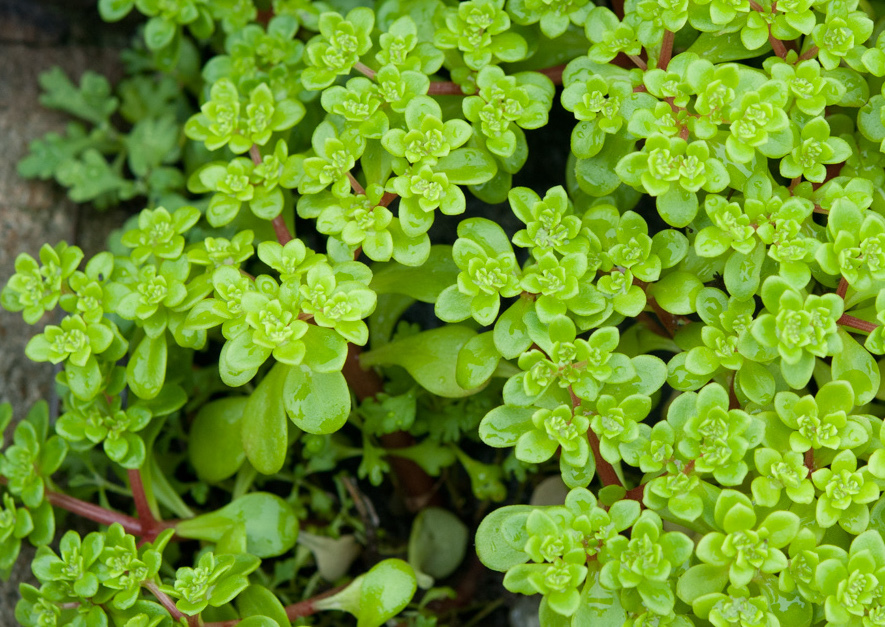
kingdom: Plantae
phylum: Tracheophyta
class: Magnoliopsida
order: Saxifragales
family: Crassulaceae
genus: Sedum
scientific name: Sedum formosanum
